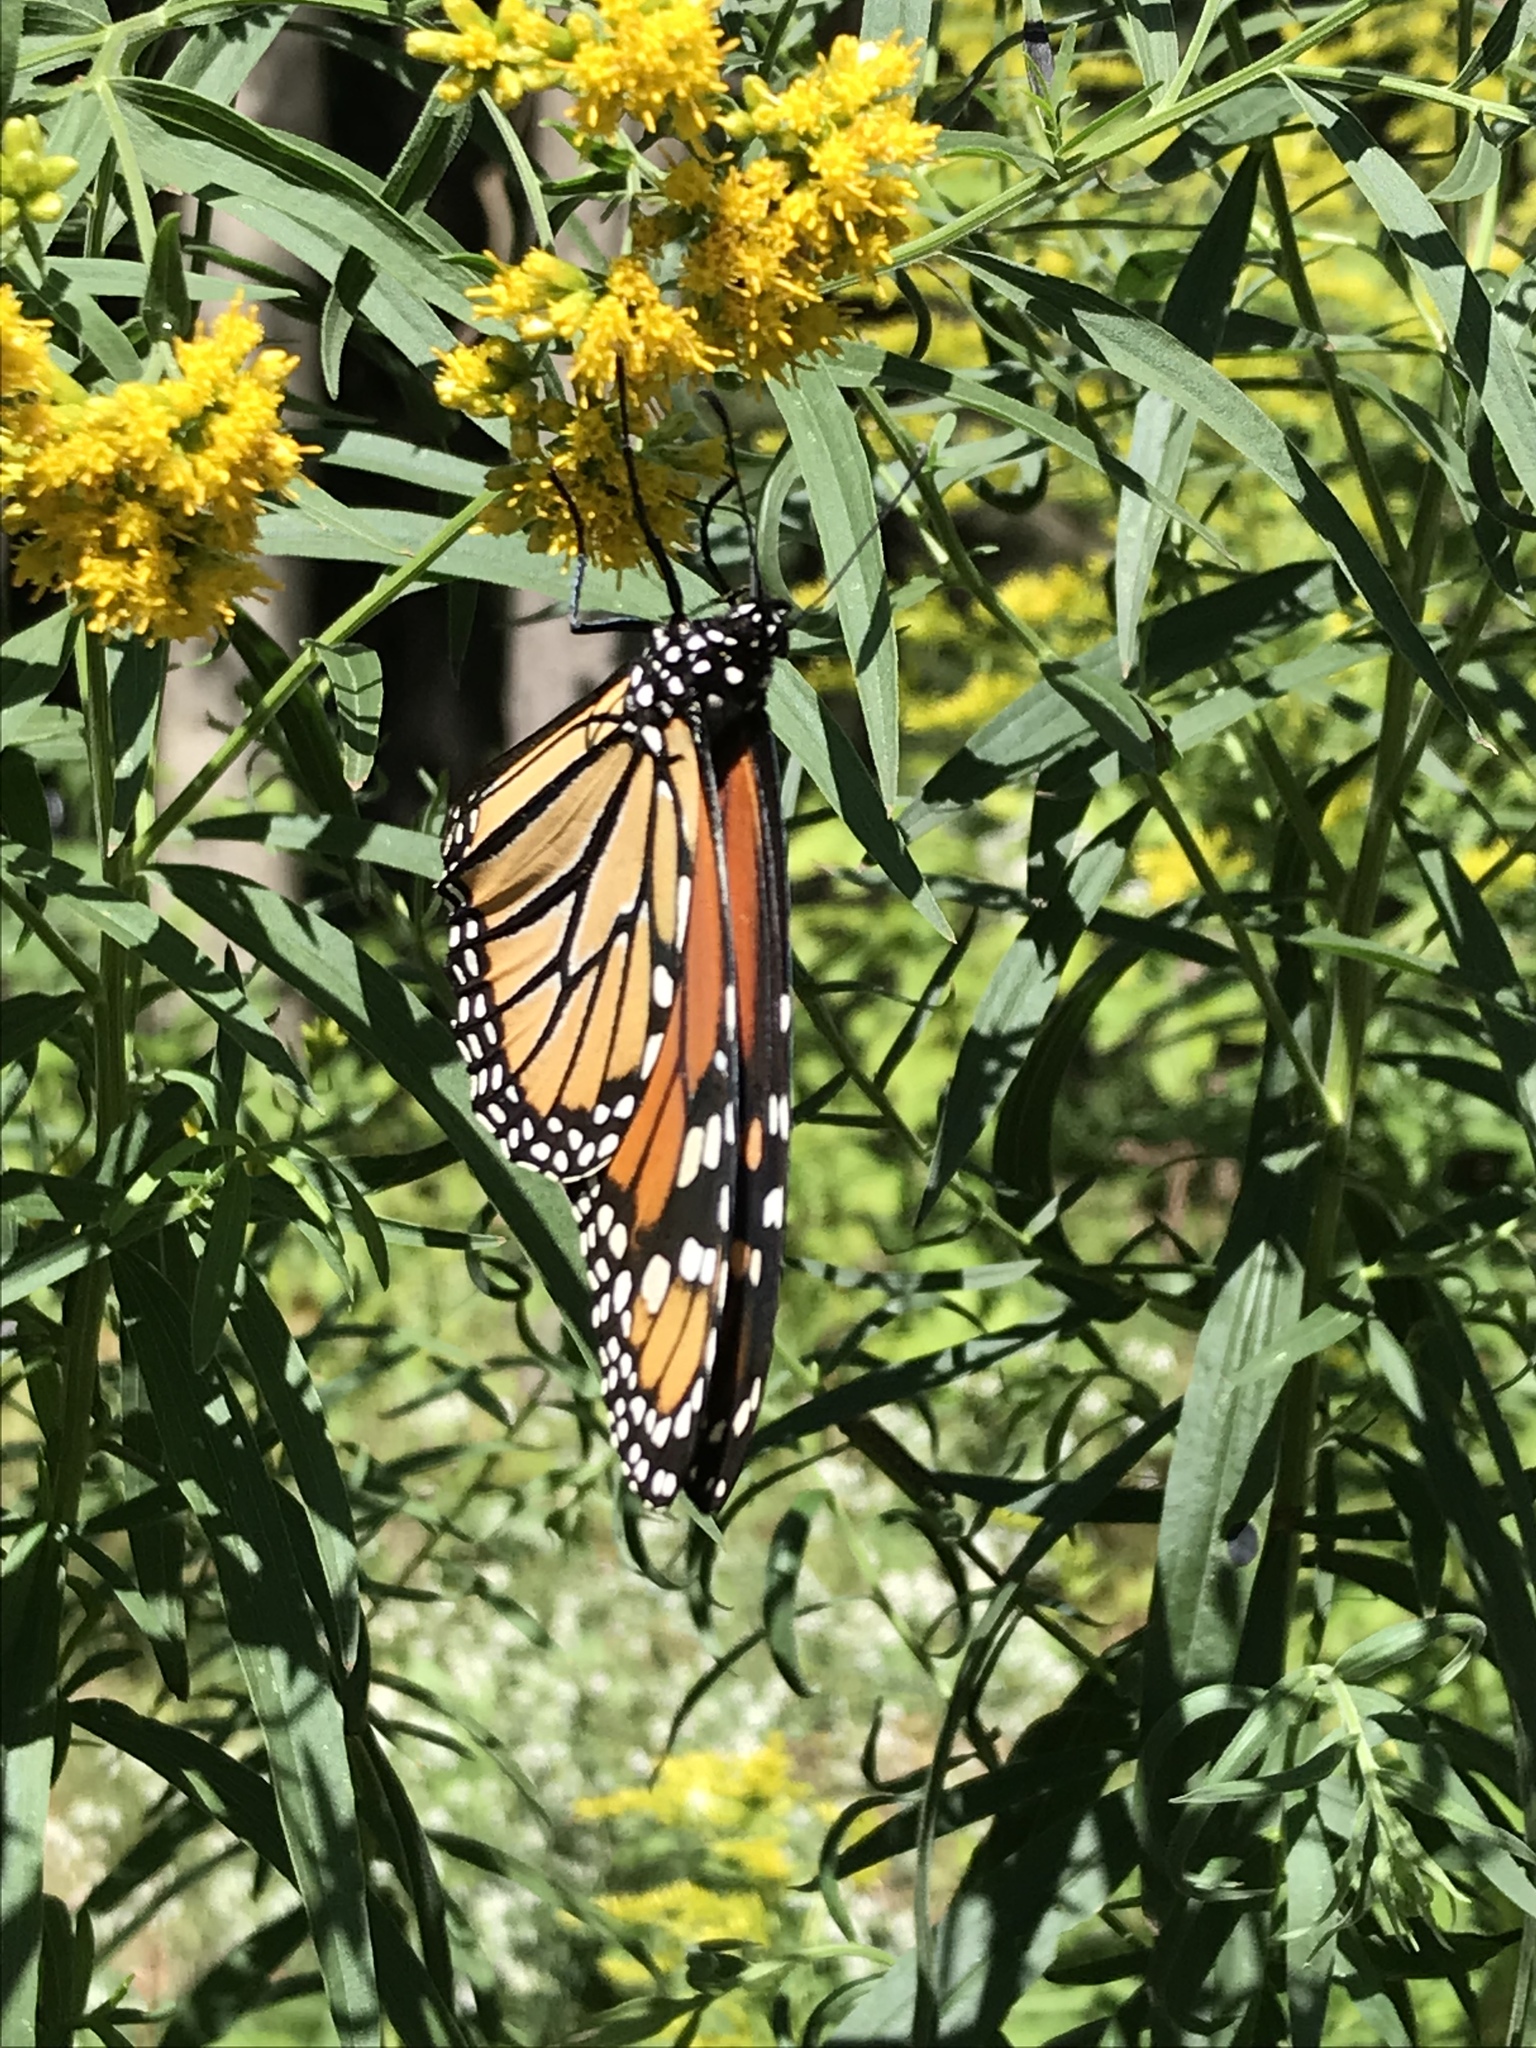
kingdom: Animalia
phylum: Arthropoda
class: Insecta
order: Lepidoptera
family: Nymphalidae
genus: Danaus
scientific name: Danaus plexippus
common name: Monarch
